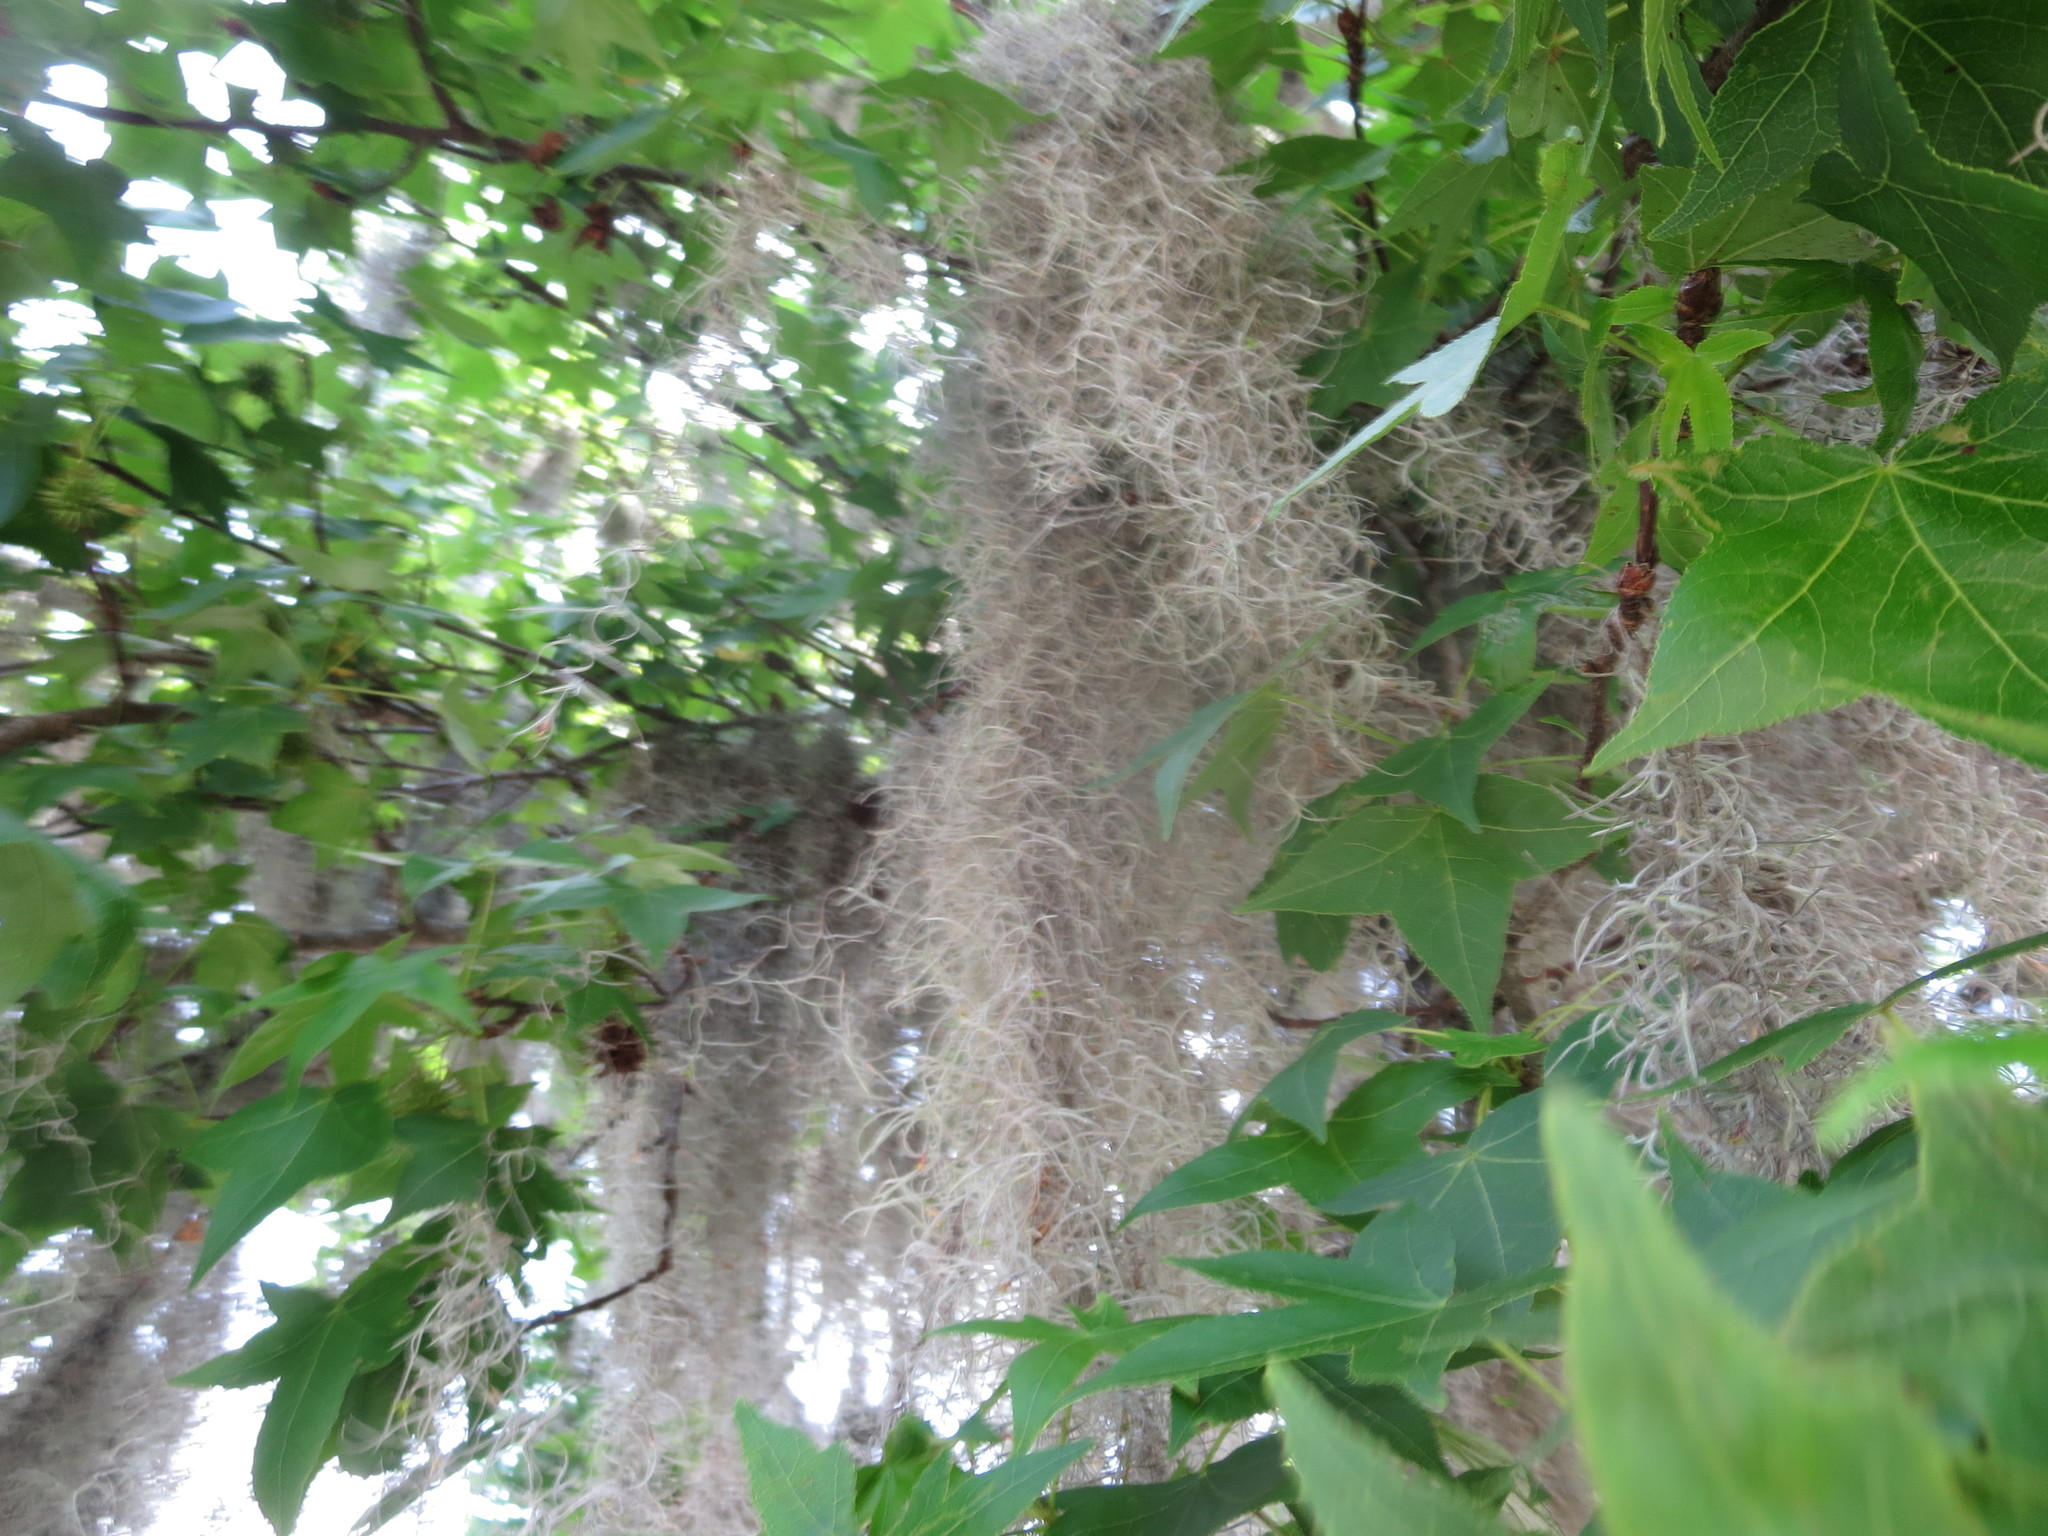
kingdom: Plantae
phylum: Tracheophyta
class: Liliopsida
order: Poales
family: Bromeliaceae
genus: Tillandsia
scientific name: Tillandsia usneoides
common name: Spanish moss
